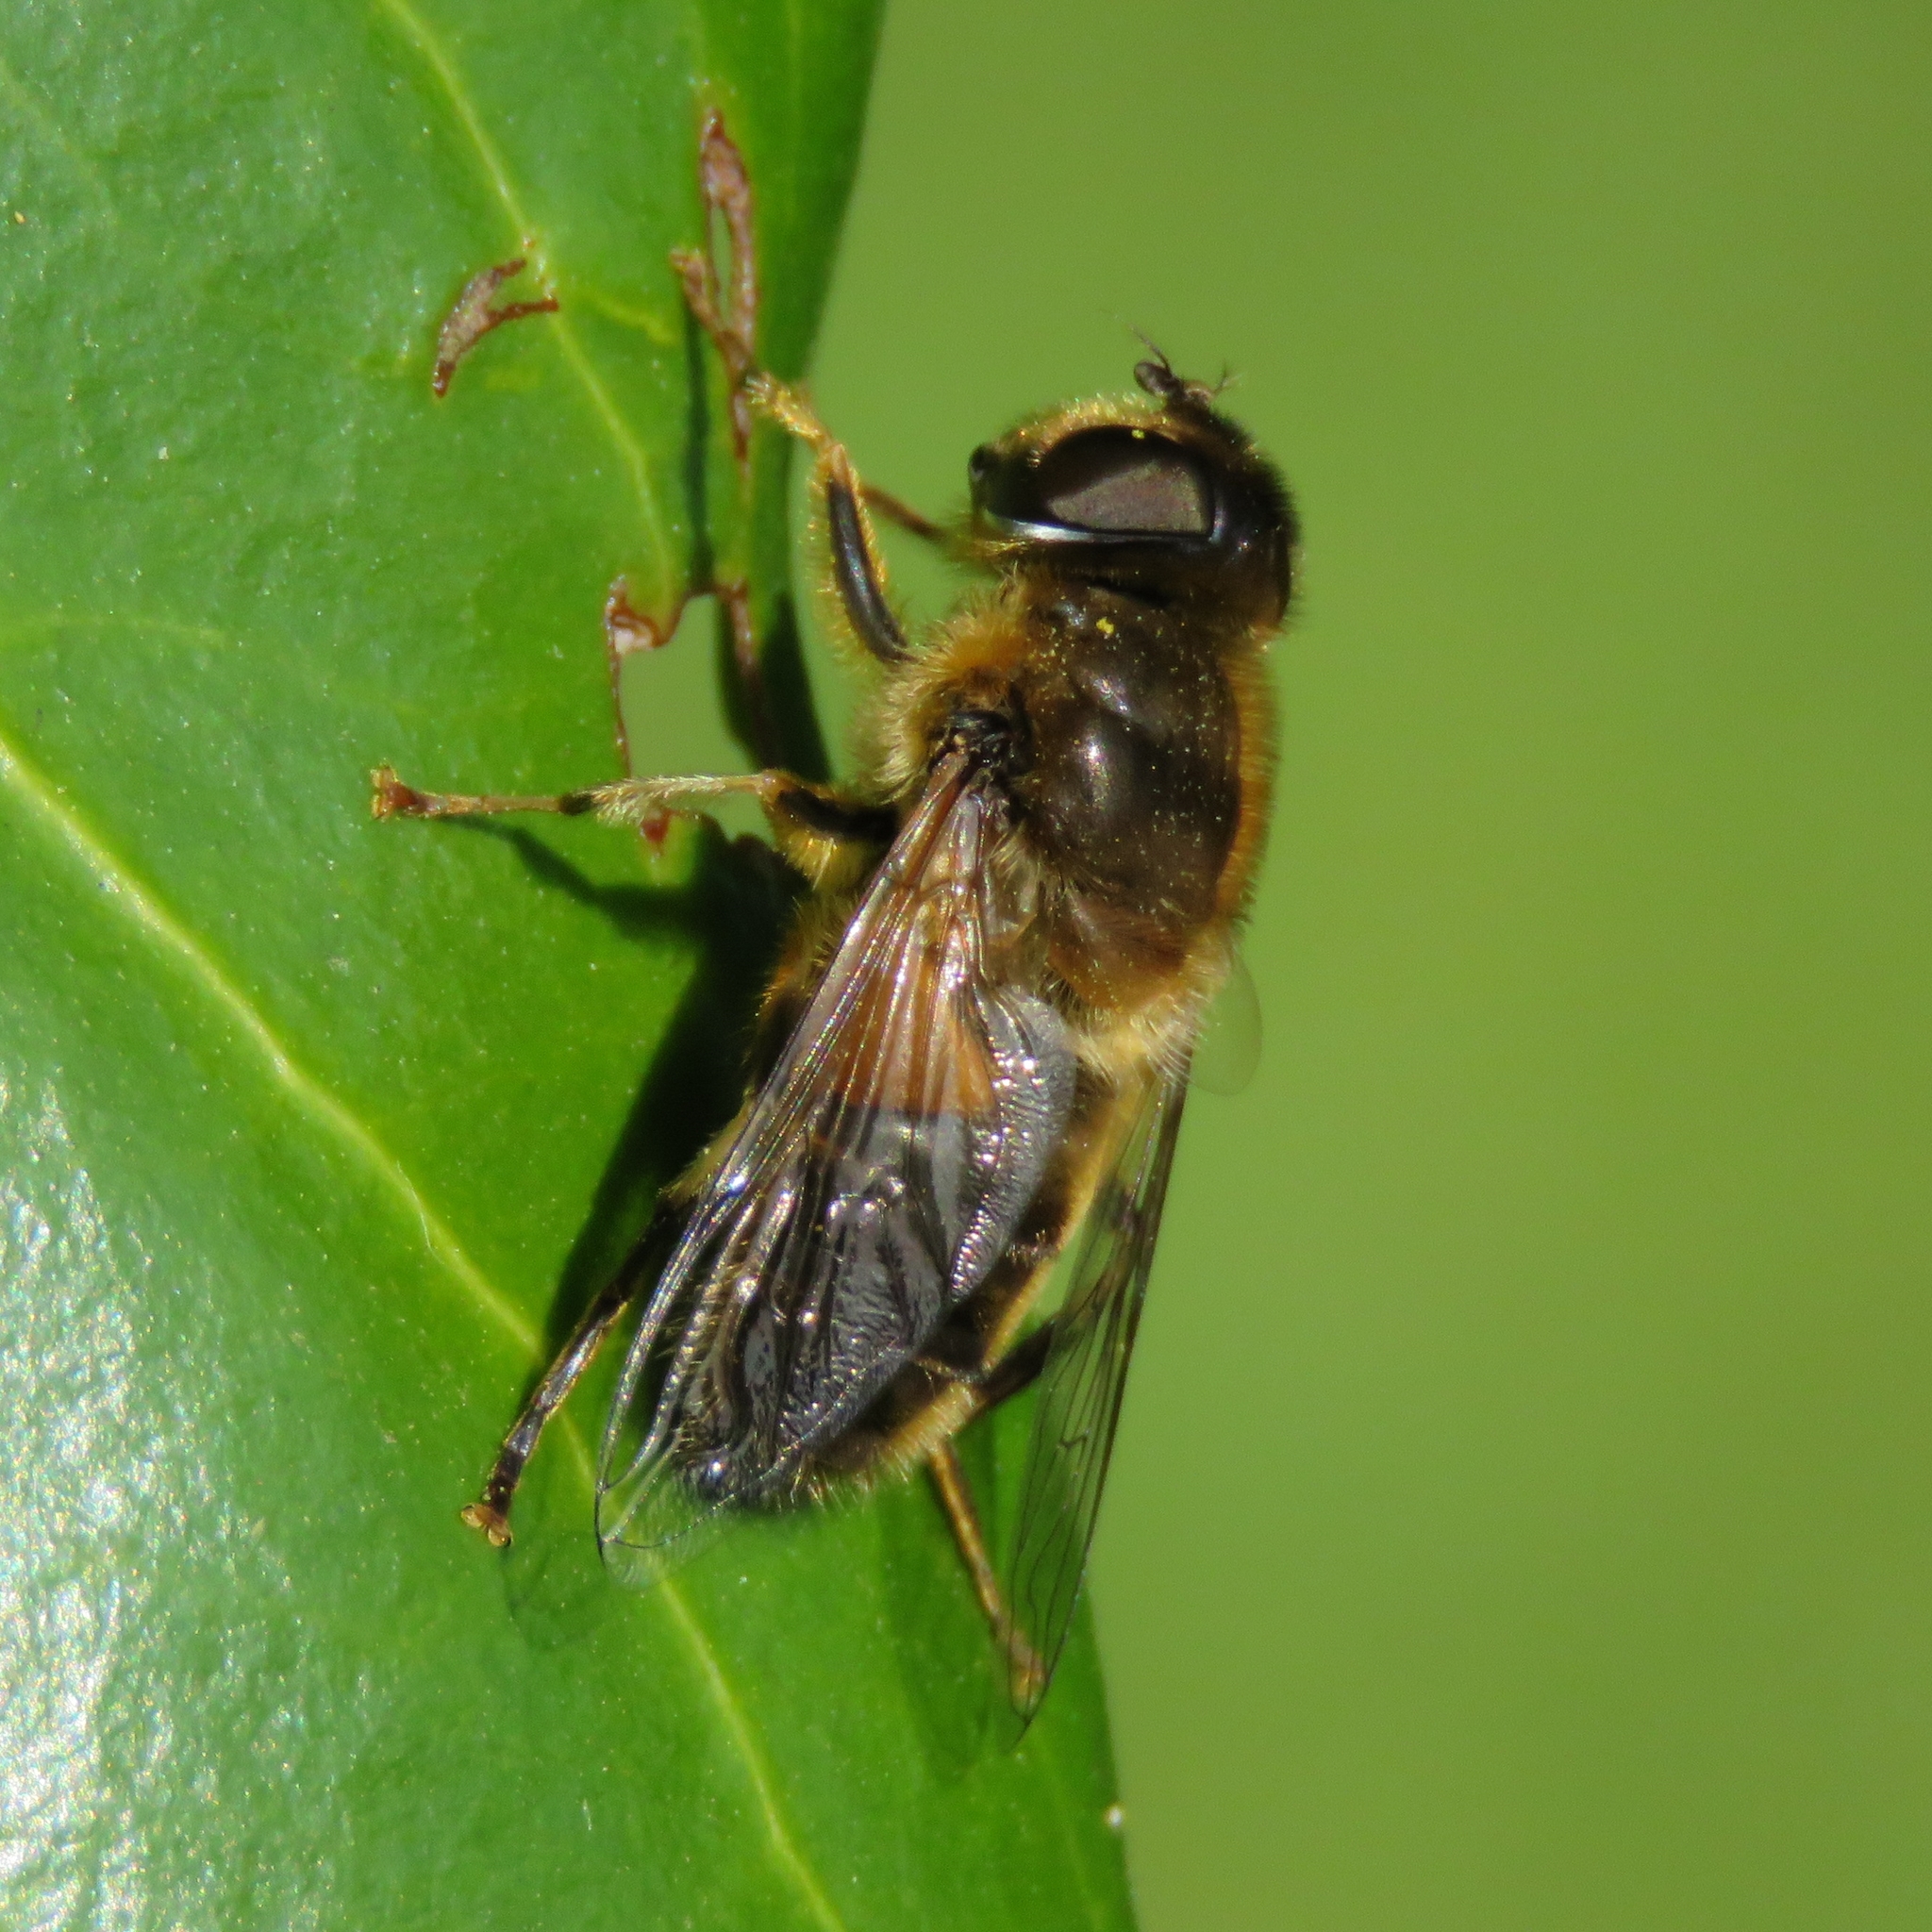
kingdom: Animalia
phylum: Arthropoda
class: Insecta
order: Diptera
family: Syrphidae
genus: Eristalis
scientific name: Eristalis pertinax
